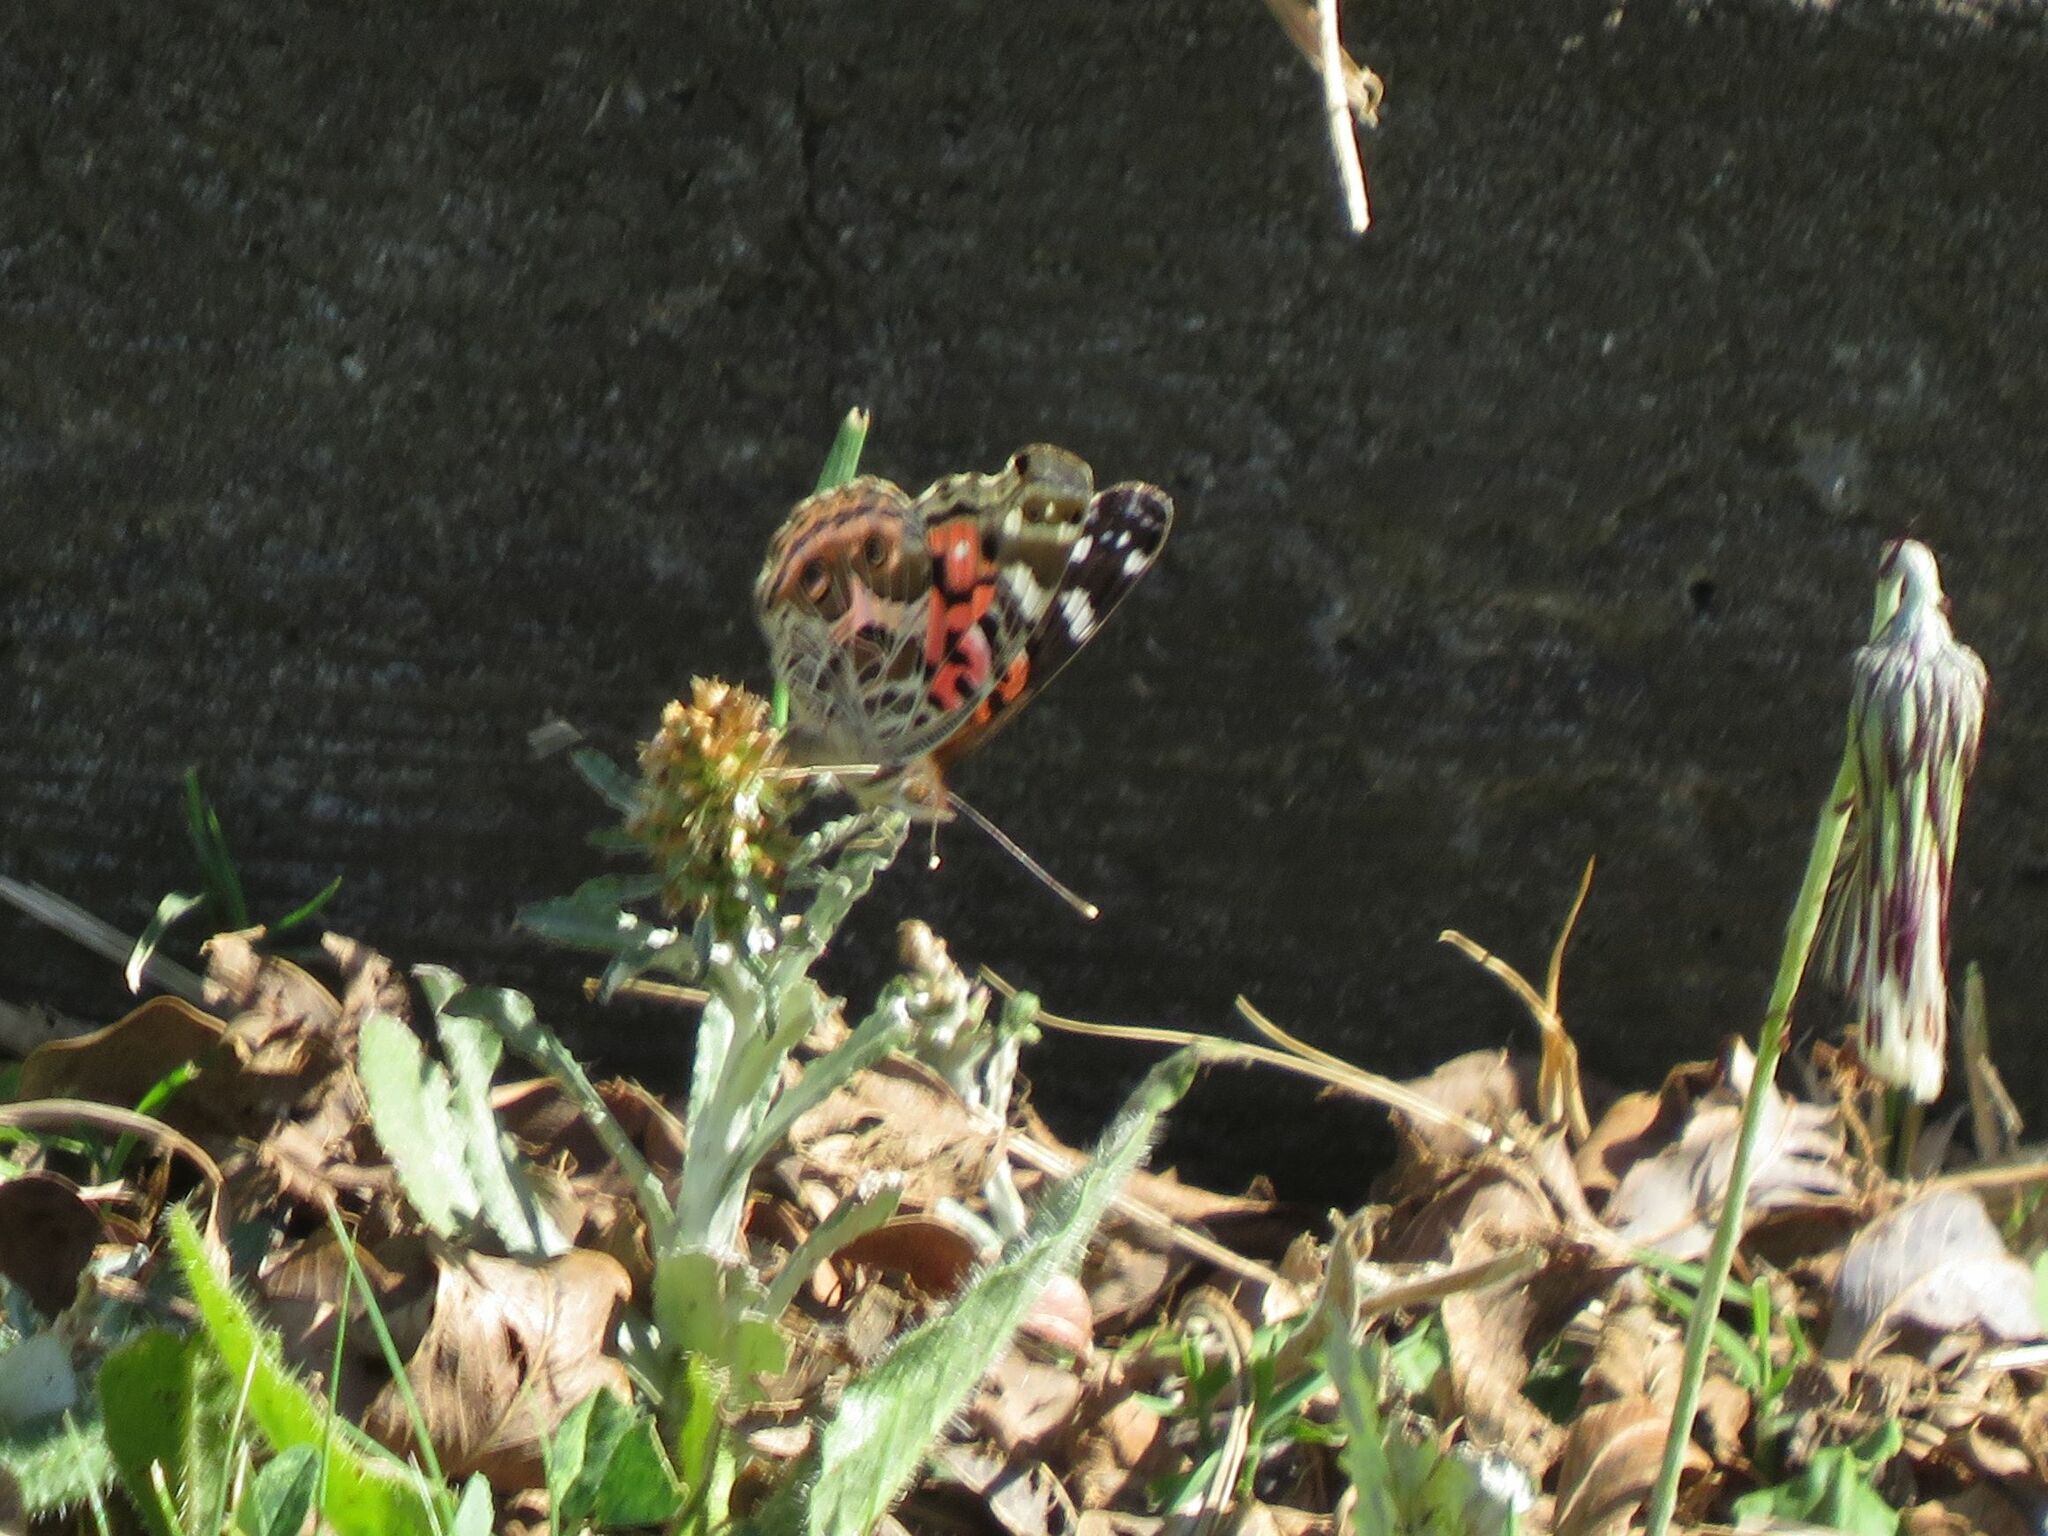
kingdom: Animalia
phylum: Arthropoda
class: Insecta
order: Lepidoptera
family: Nymphalidae
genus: Vanessa
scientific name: Vanessa braziliensis
